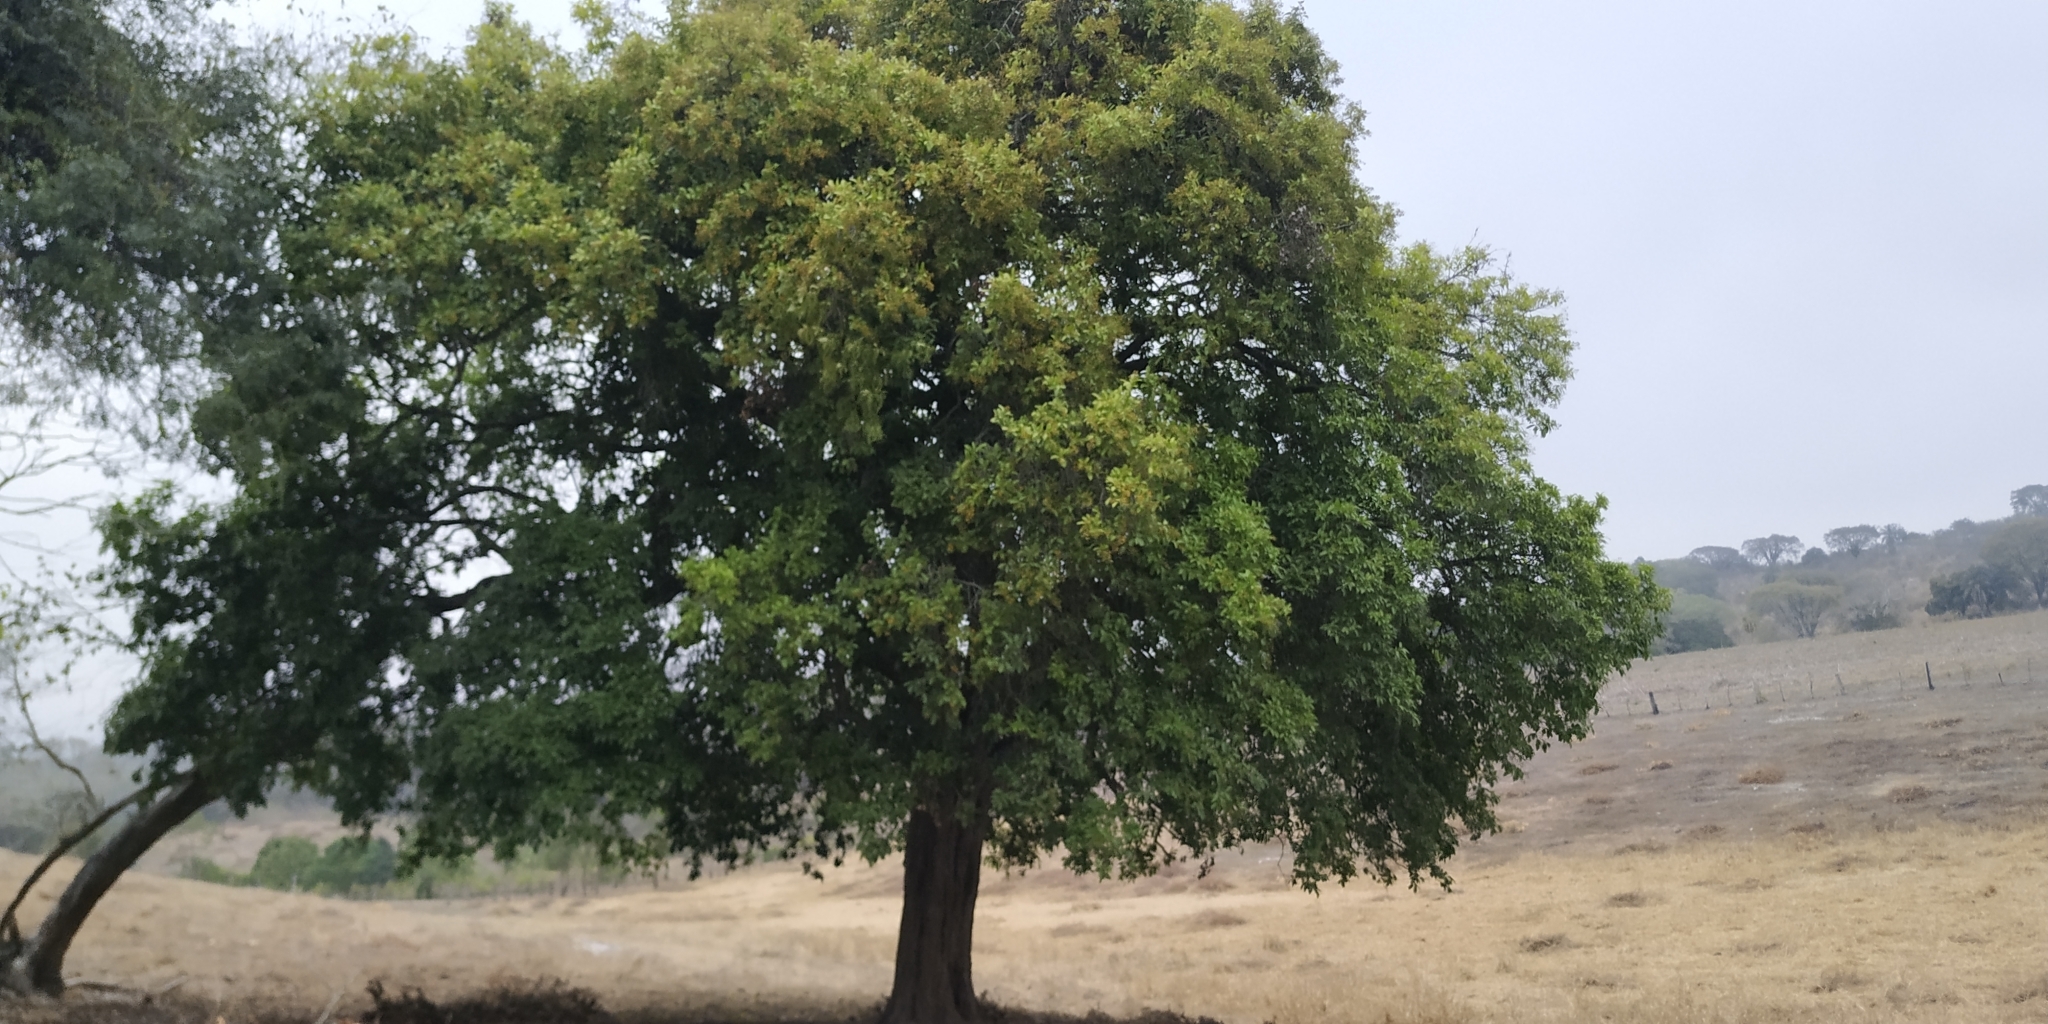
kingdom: Plantae
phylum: Tracheophyta
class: Magnoliopsida
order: Boraginales
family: Ehretiaceae
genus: Ehretia
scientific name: Ehretia tinifolia
